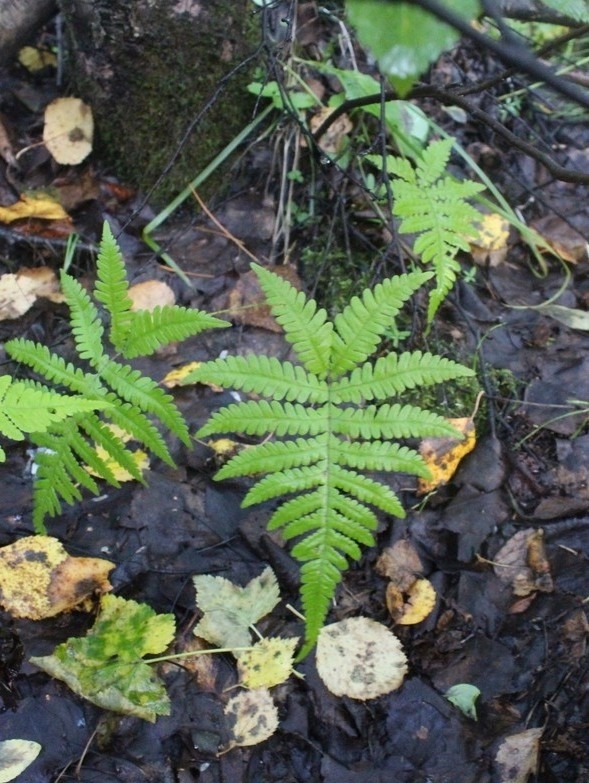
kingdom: Plantae
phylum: Tracheophyta
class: Polypodiopsida
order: Polypodiales
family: Thelypteridaceae
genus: Phegopteris
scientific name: Phegopteris connectilis
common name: Beech fern
